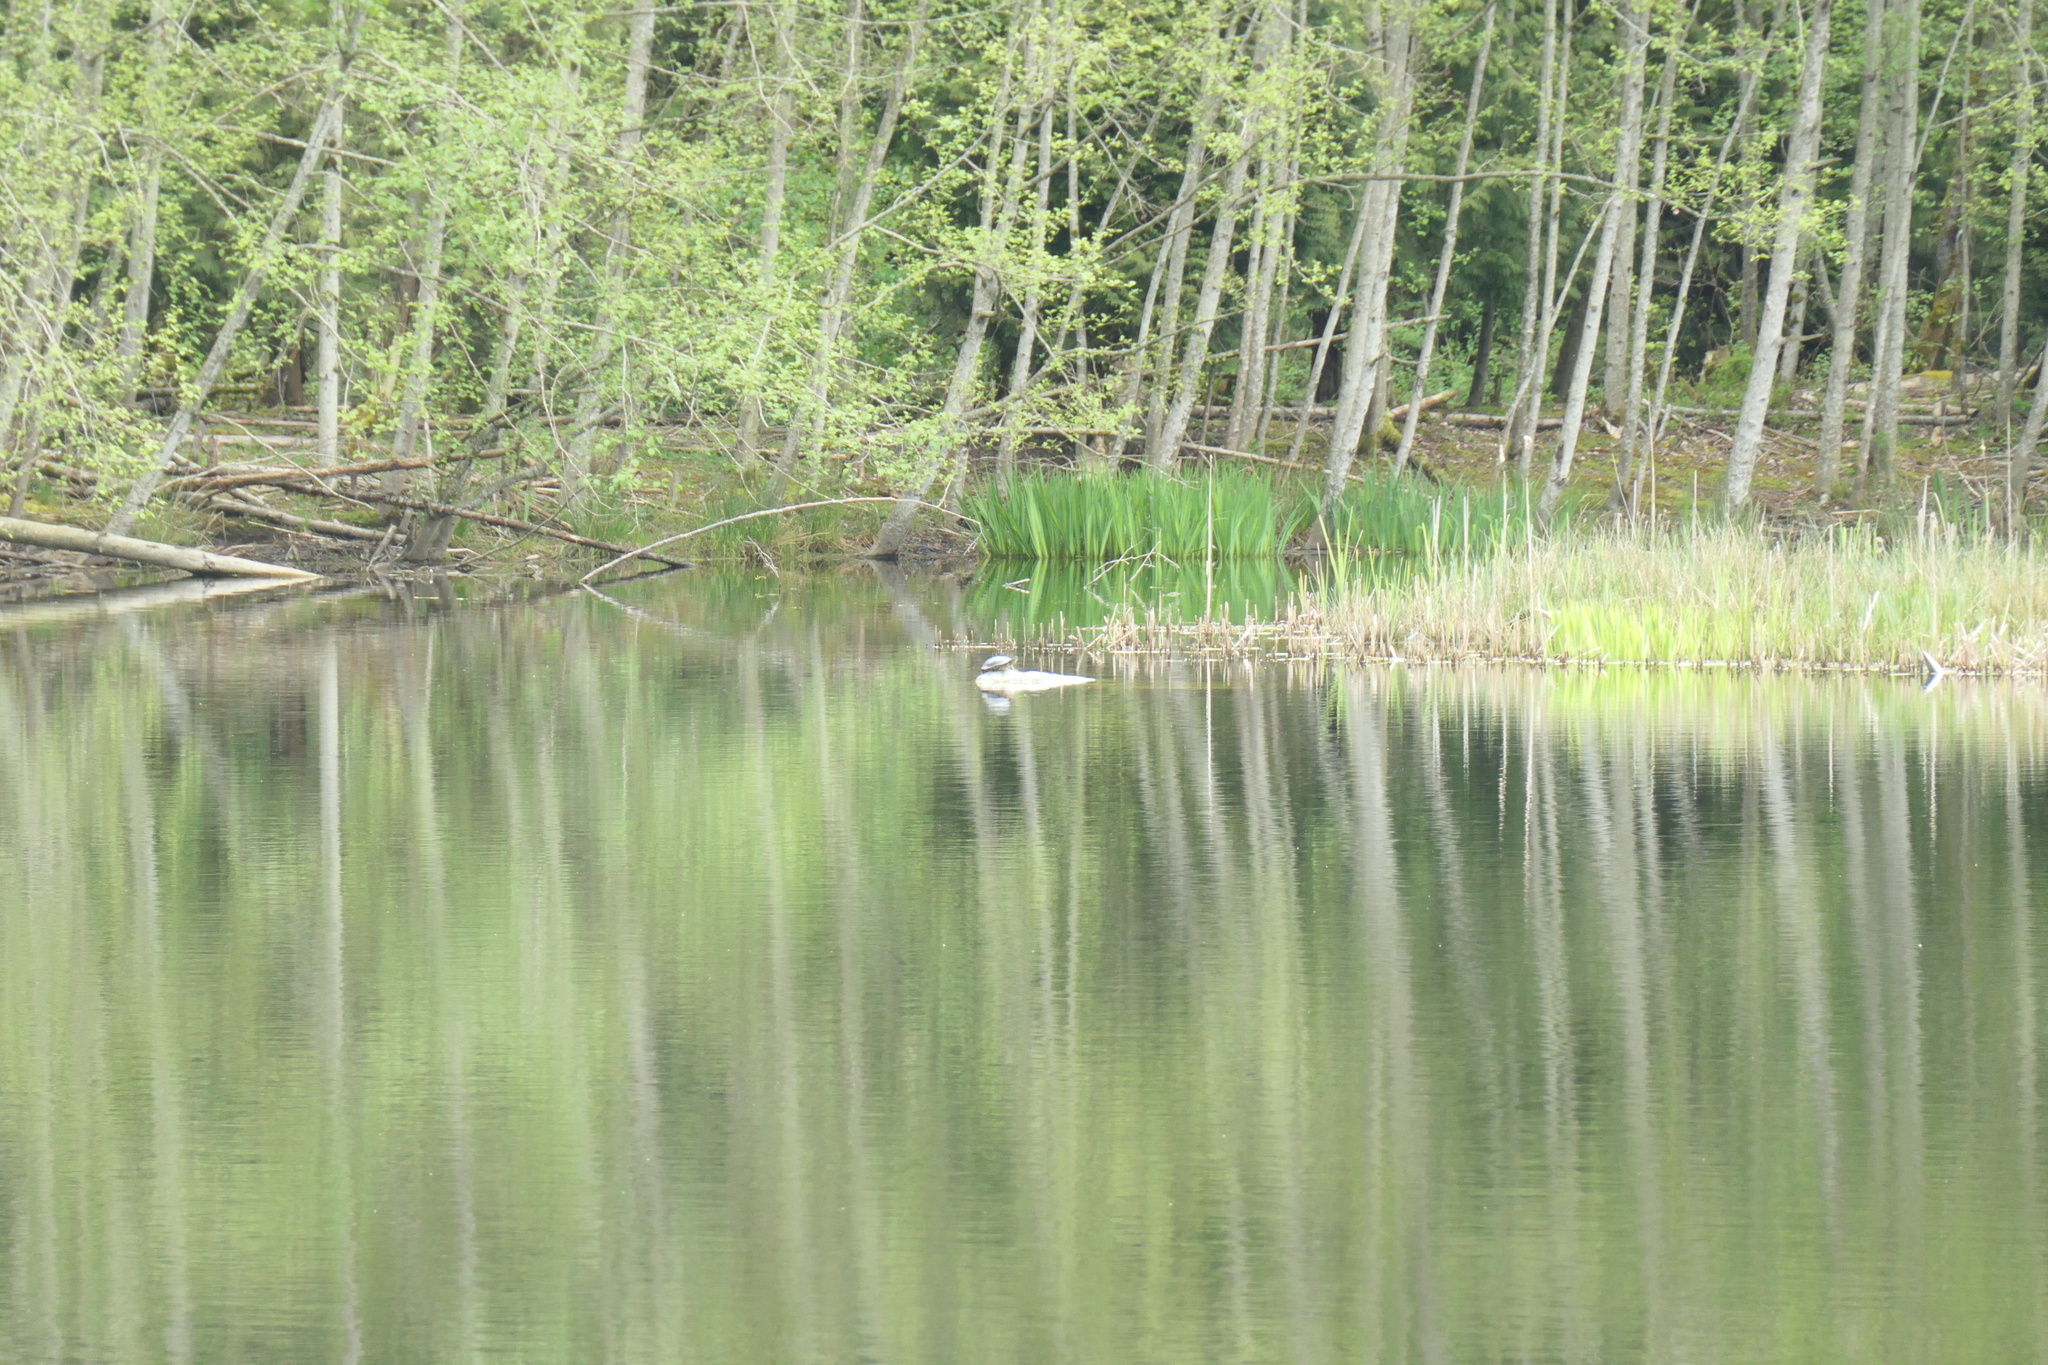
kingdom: Animalia
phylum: Chordata
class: Testudines
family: Emydidae
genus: Trachemys
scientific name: Trachemys
